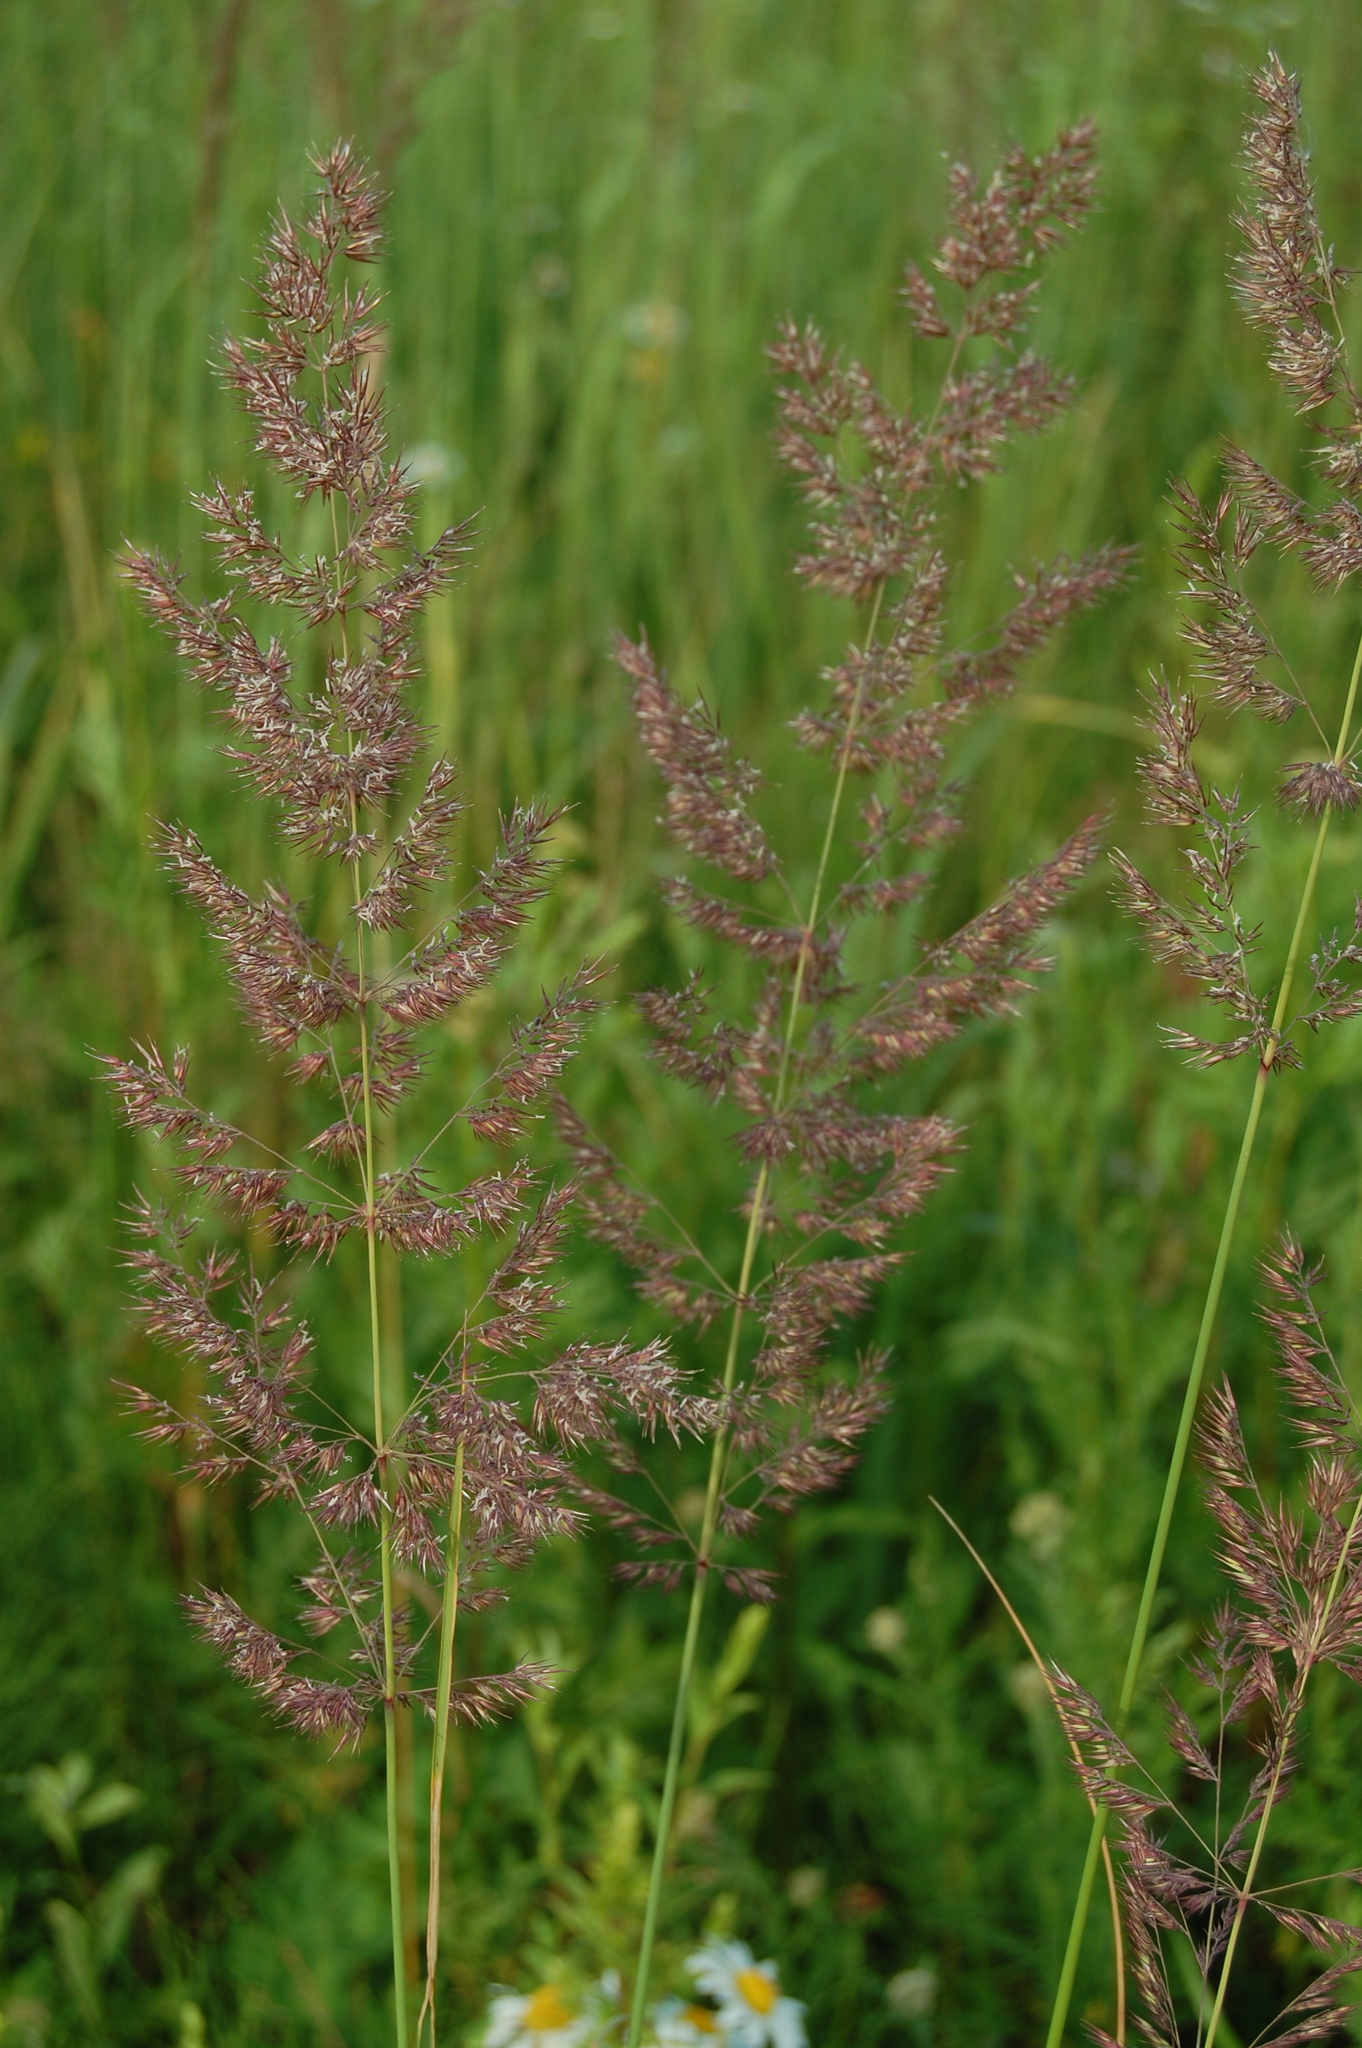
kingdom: Plantae
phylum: Tracheophyta
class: Liliopsida
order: Poales
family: Poaceae
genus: Calamagrostis
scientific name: Calamagrostis epigejos
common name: Wood small-reed
